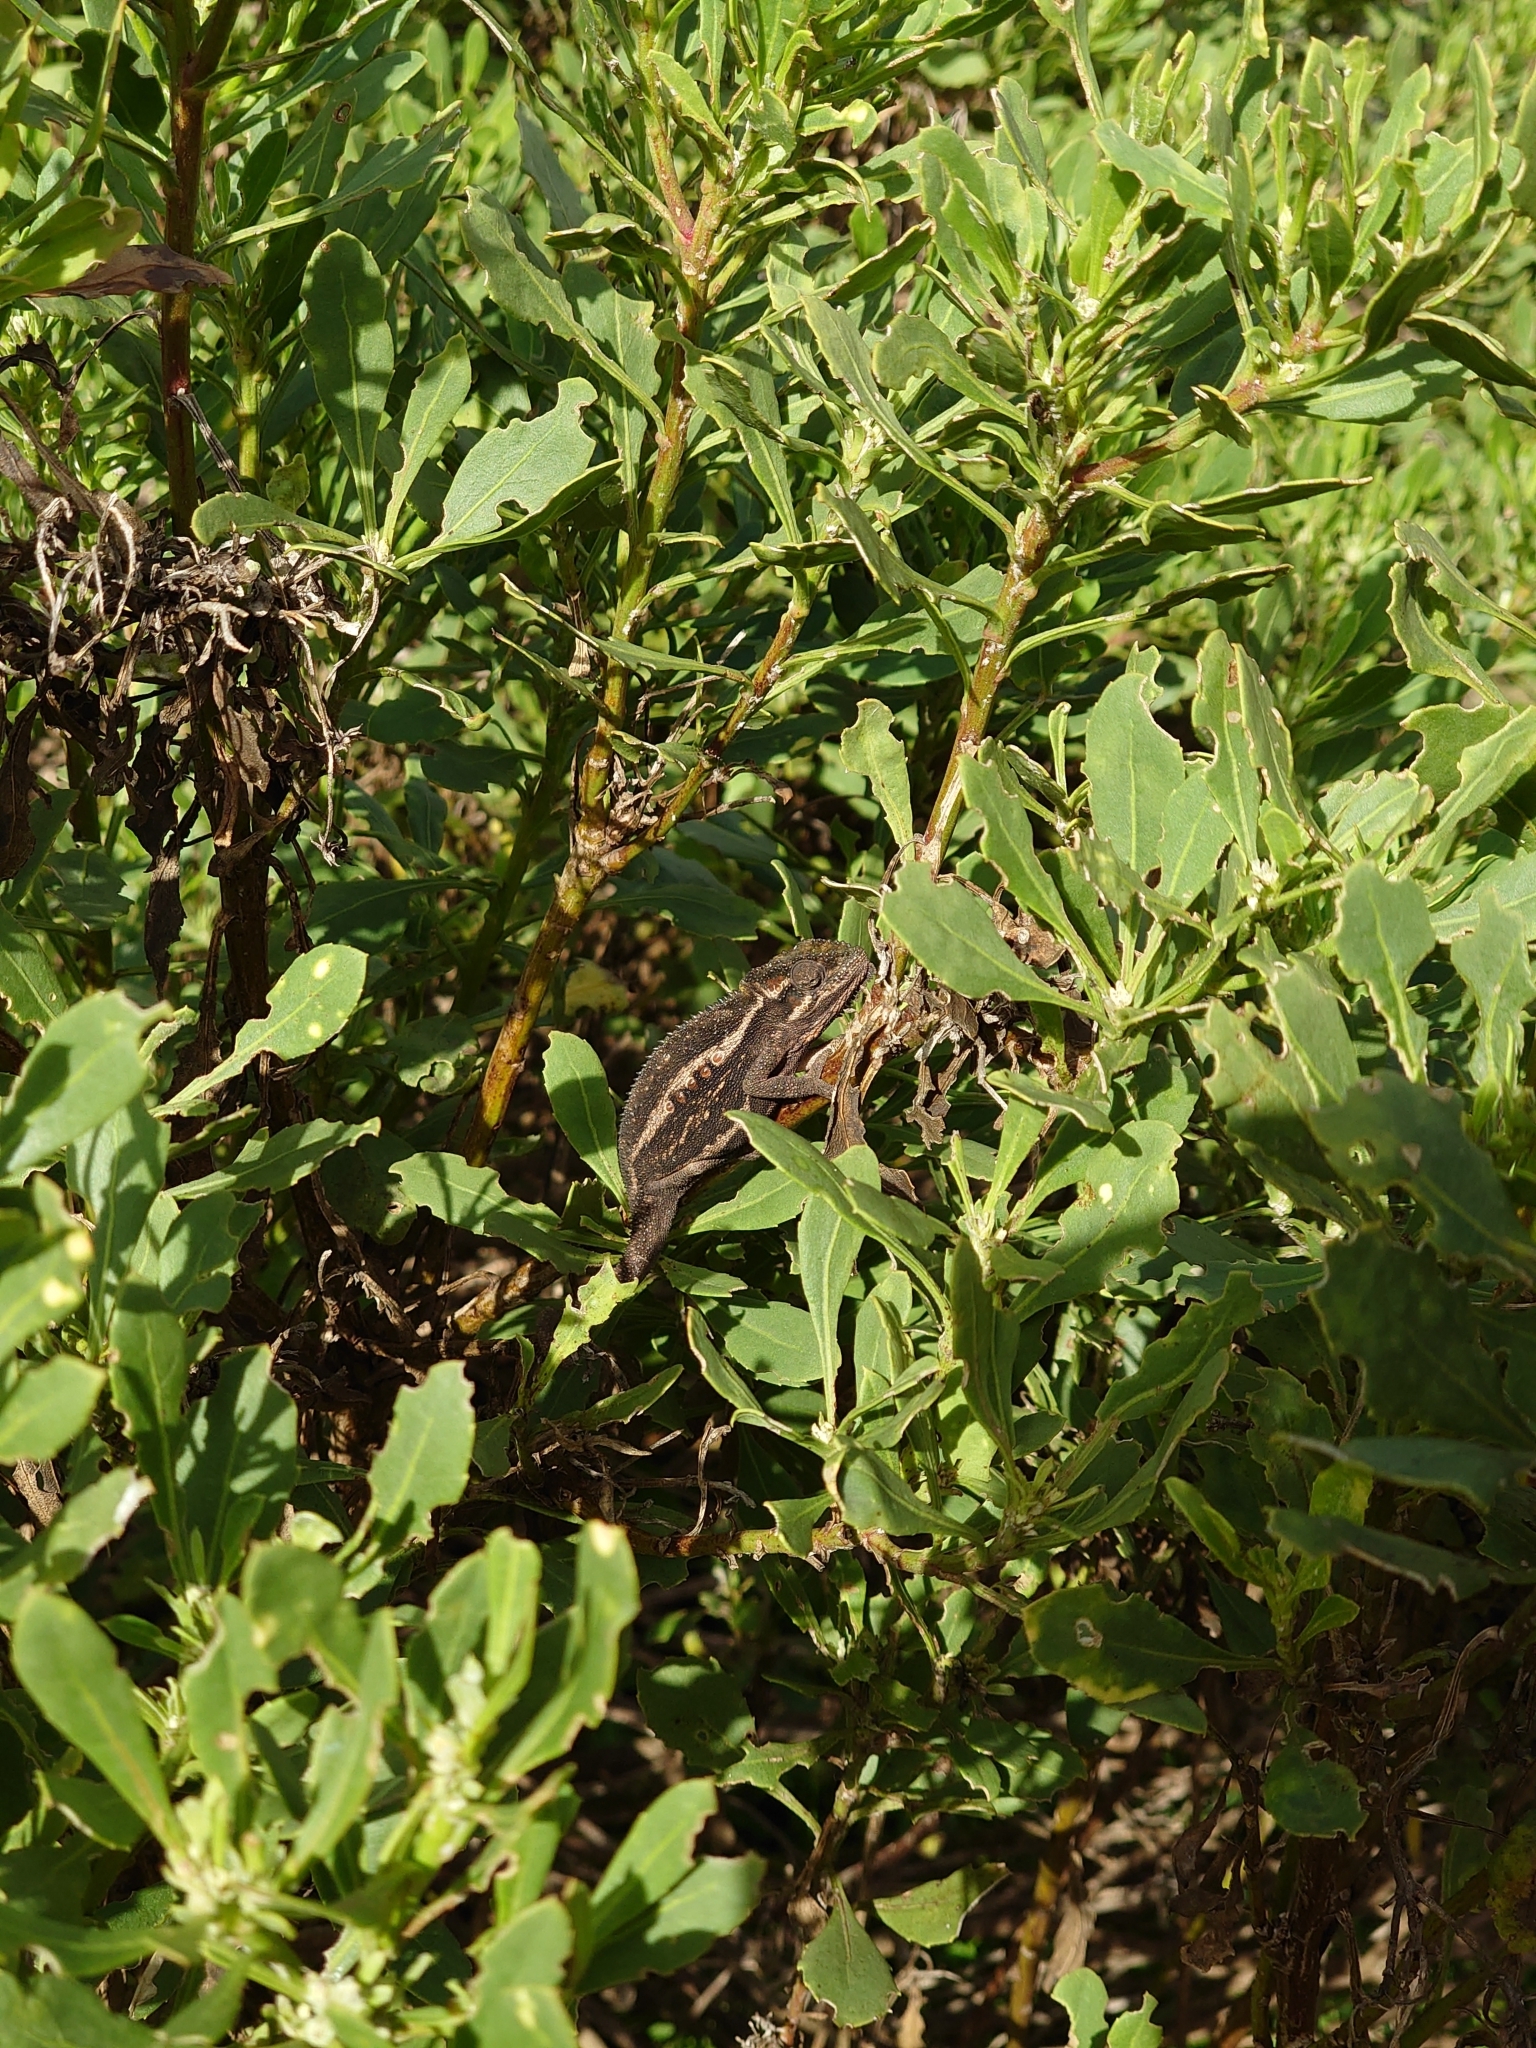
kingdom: Animalia
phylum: Chordata
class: Squamata
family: Chamaeleonidae
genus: Bradypodion
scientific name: Bradypodion pumilum
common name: Cape dwarf chameleon
